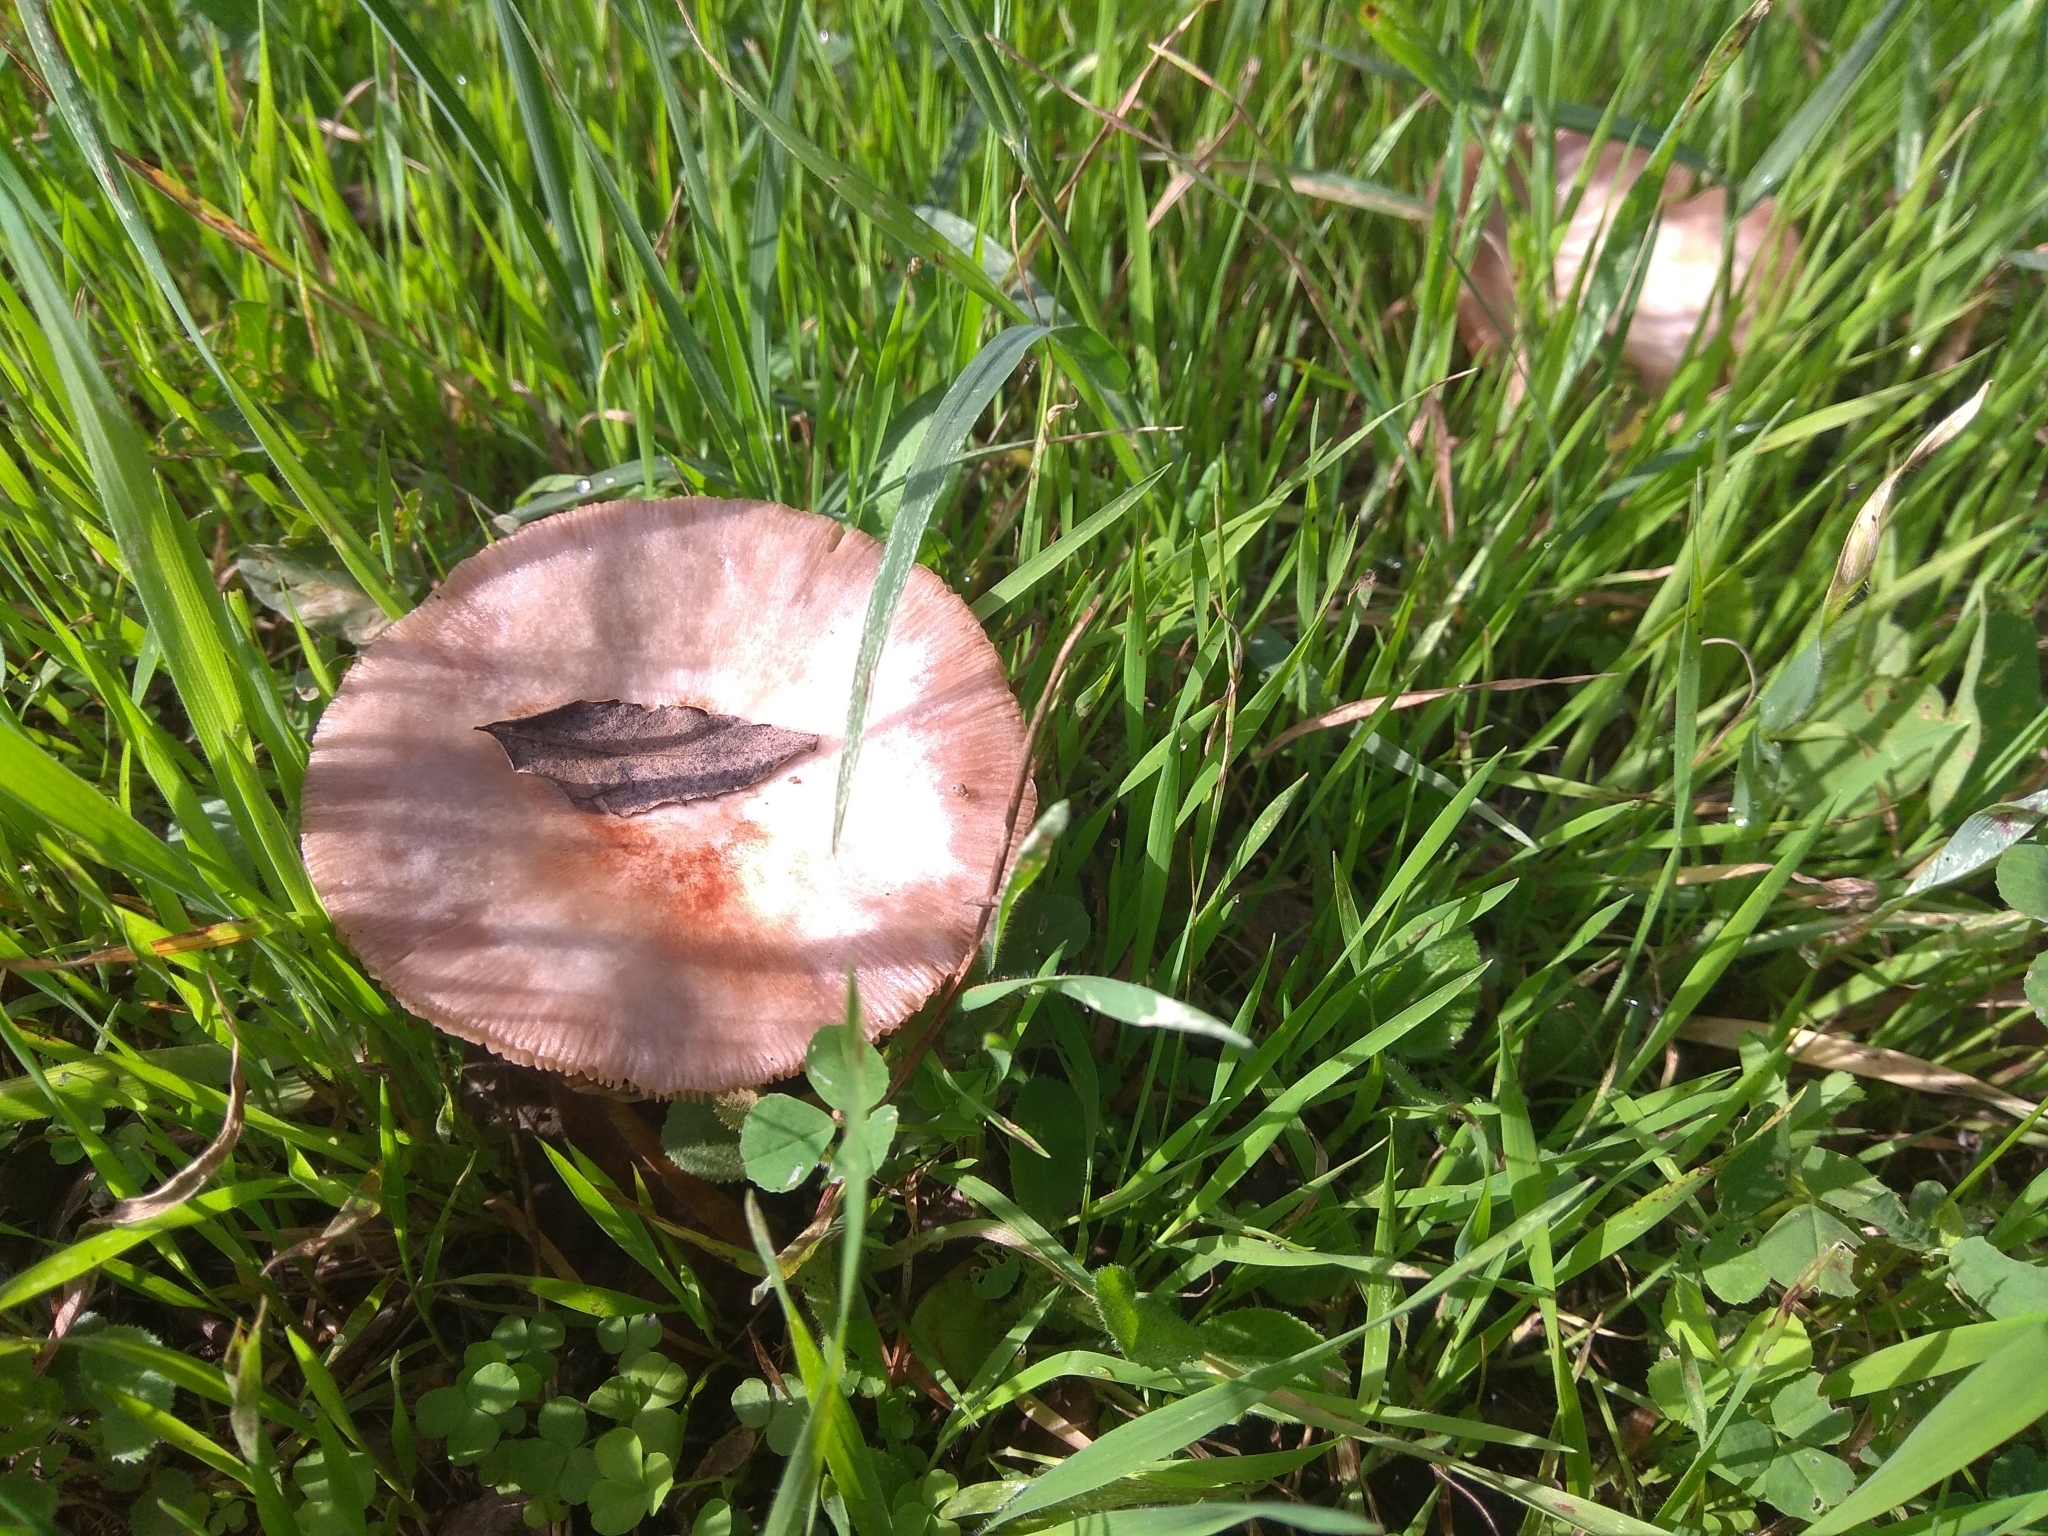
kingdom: Fungi
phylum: Basidiomycota
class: Agaricomycetes
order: Agaricales
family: Pluteaceae
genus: Volvopluteus
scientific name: Volvopluteus gloiocephalus
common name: Stubble rosegill
